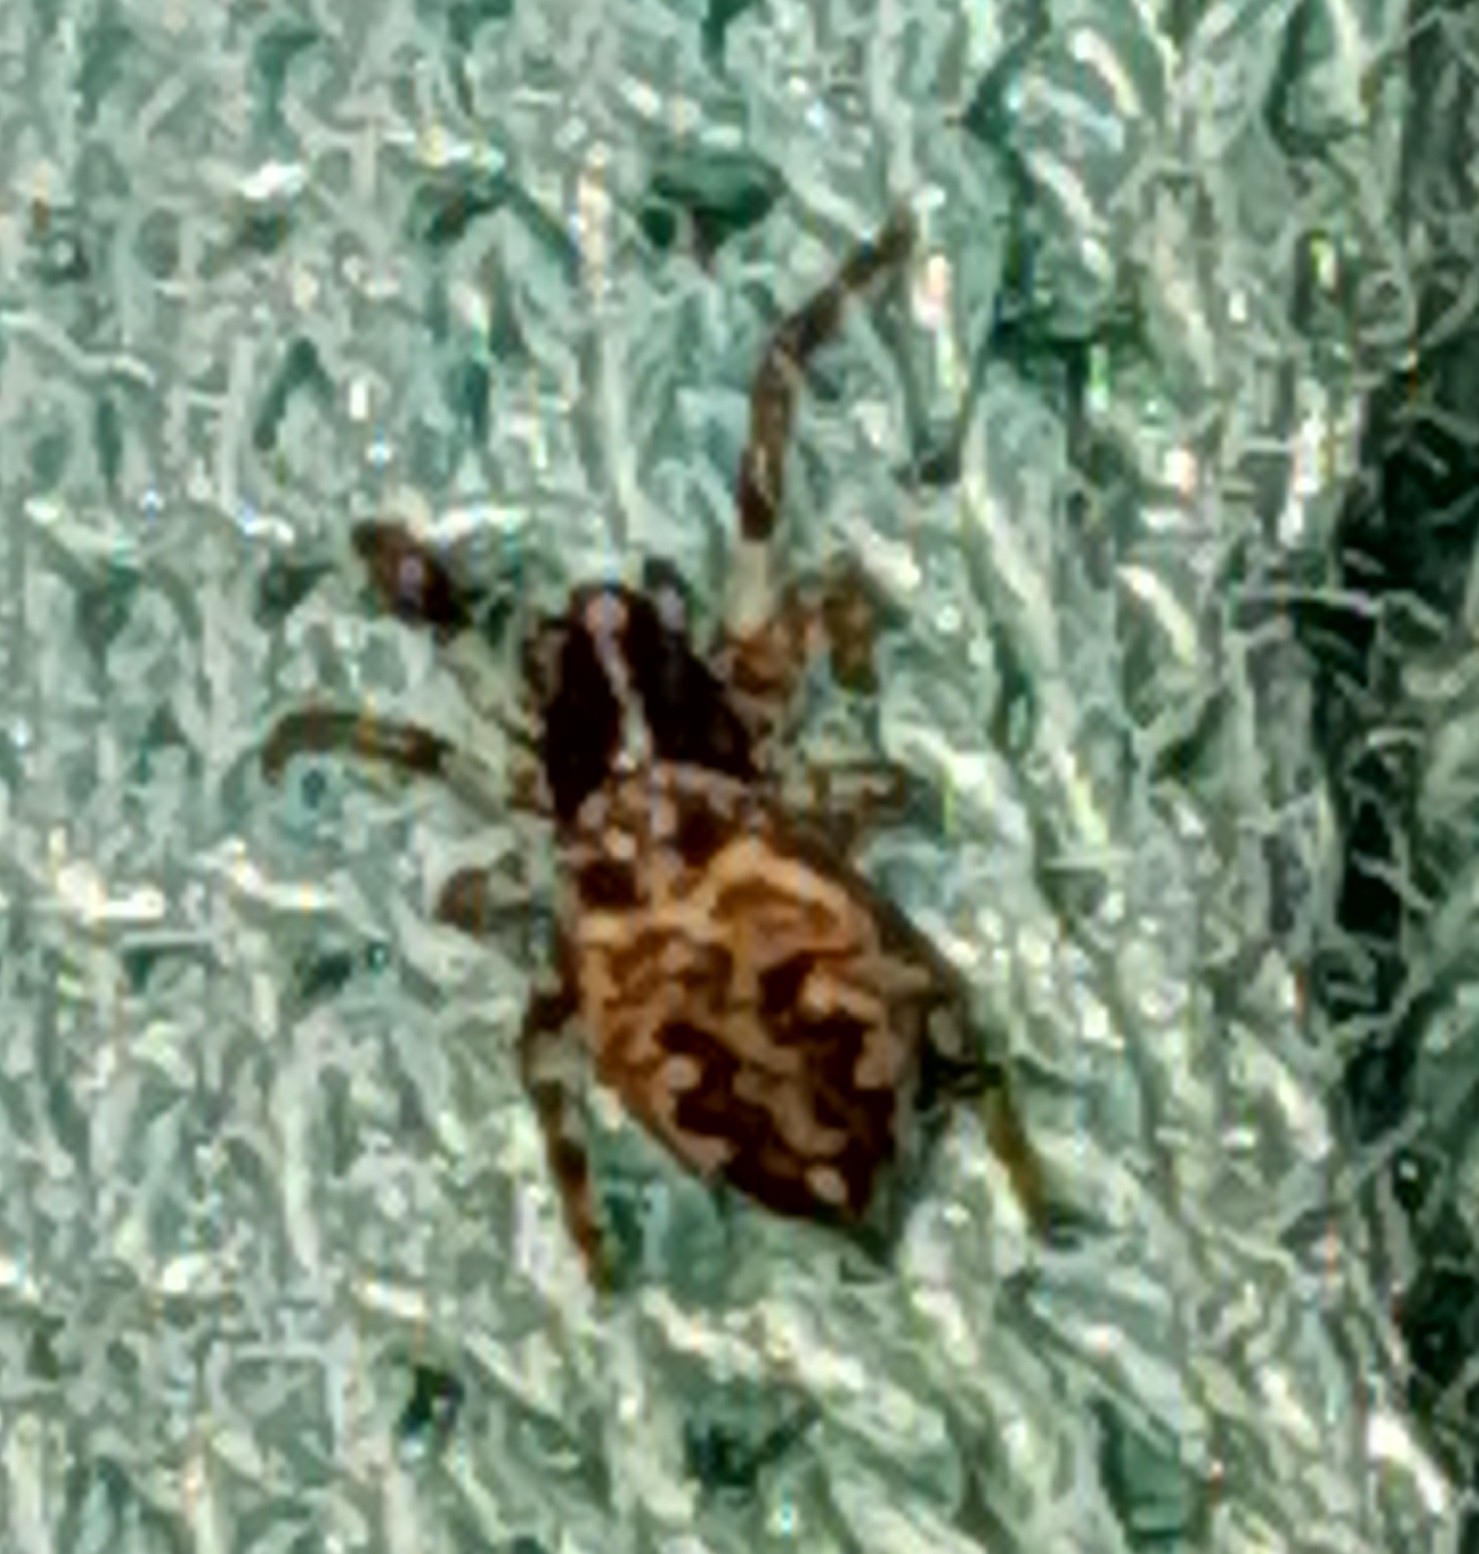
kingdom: Animalia
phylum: Arthropoda
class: Arachnida
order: Araneae
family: Araneidae
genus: Cyclosa
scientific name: Cyclosa oculata
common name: Trashline orbweaver
